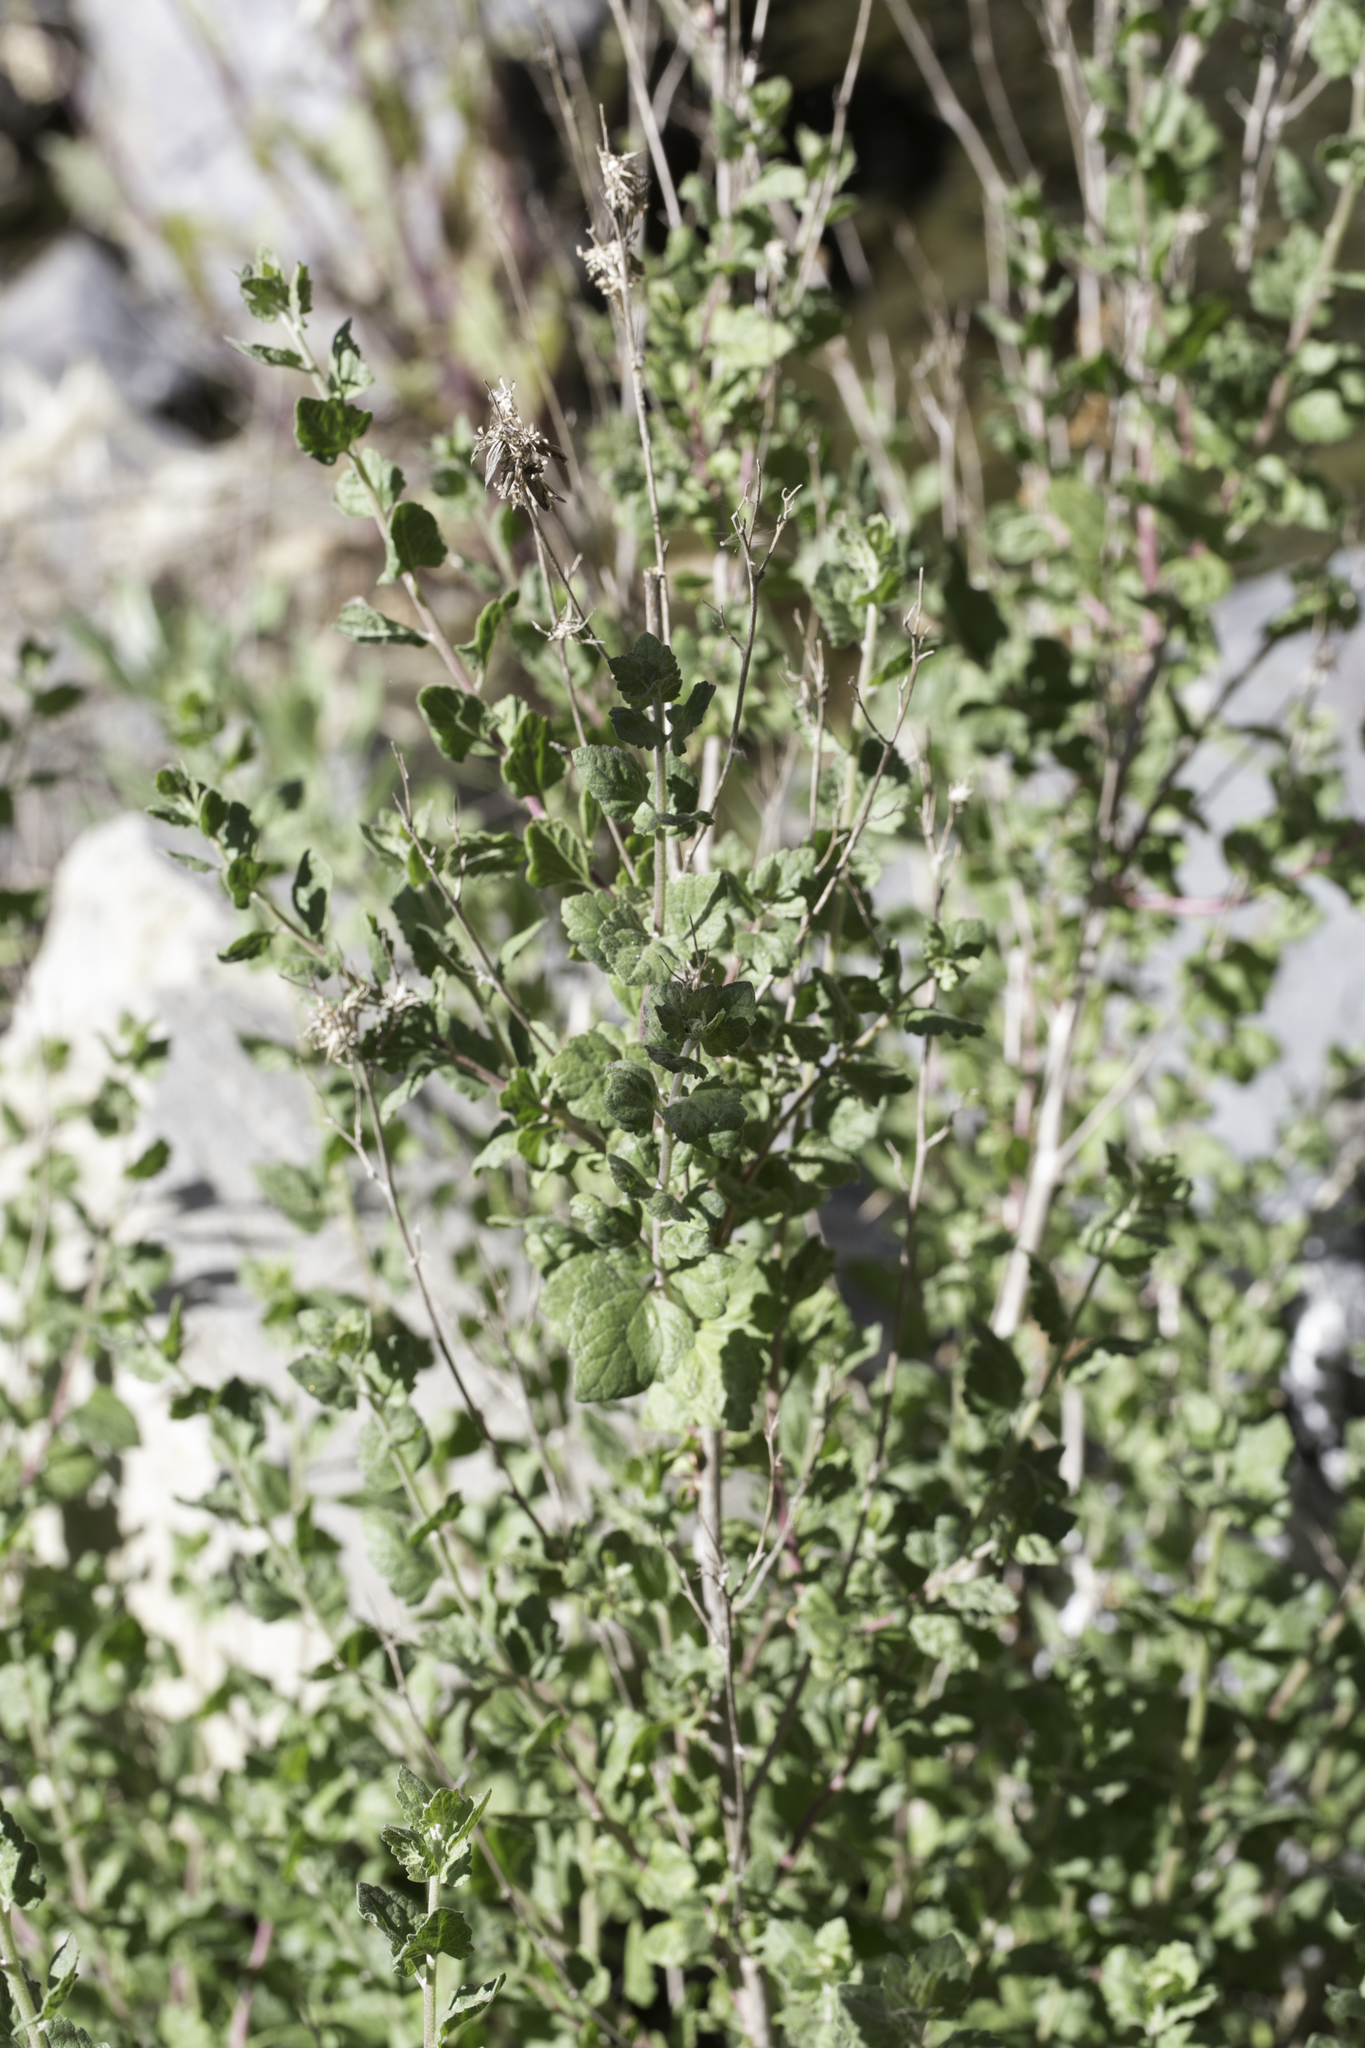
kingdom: Plantae
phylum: Tracheophyta
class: Magnoliopsida
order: Asterales
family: Asteraceae
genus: Brickellia
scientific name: Brickellia californica
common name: California brickellbush
